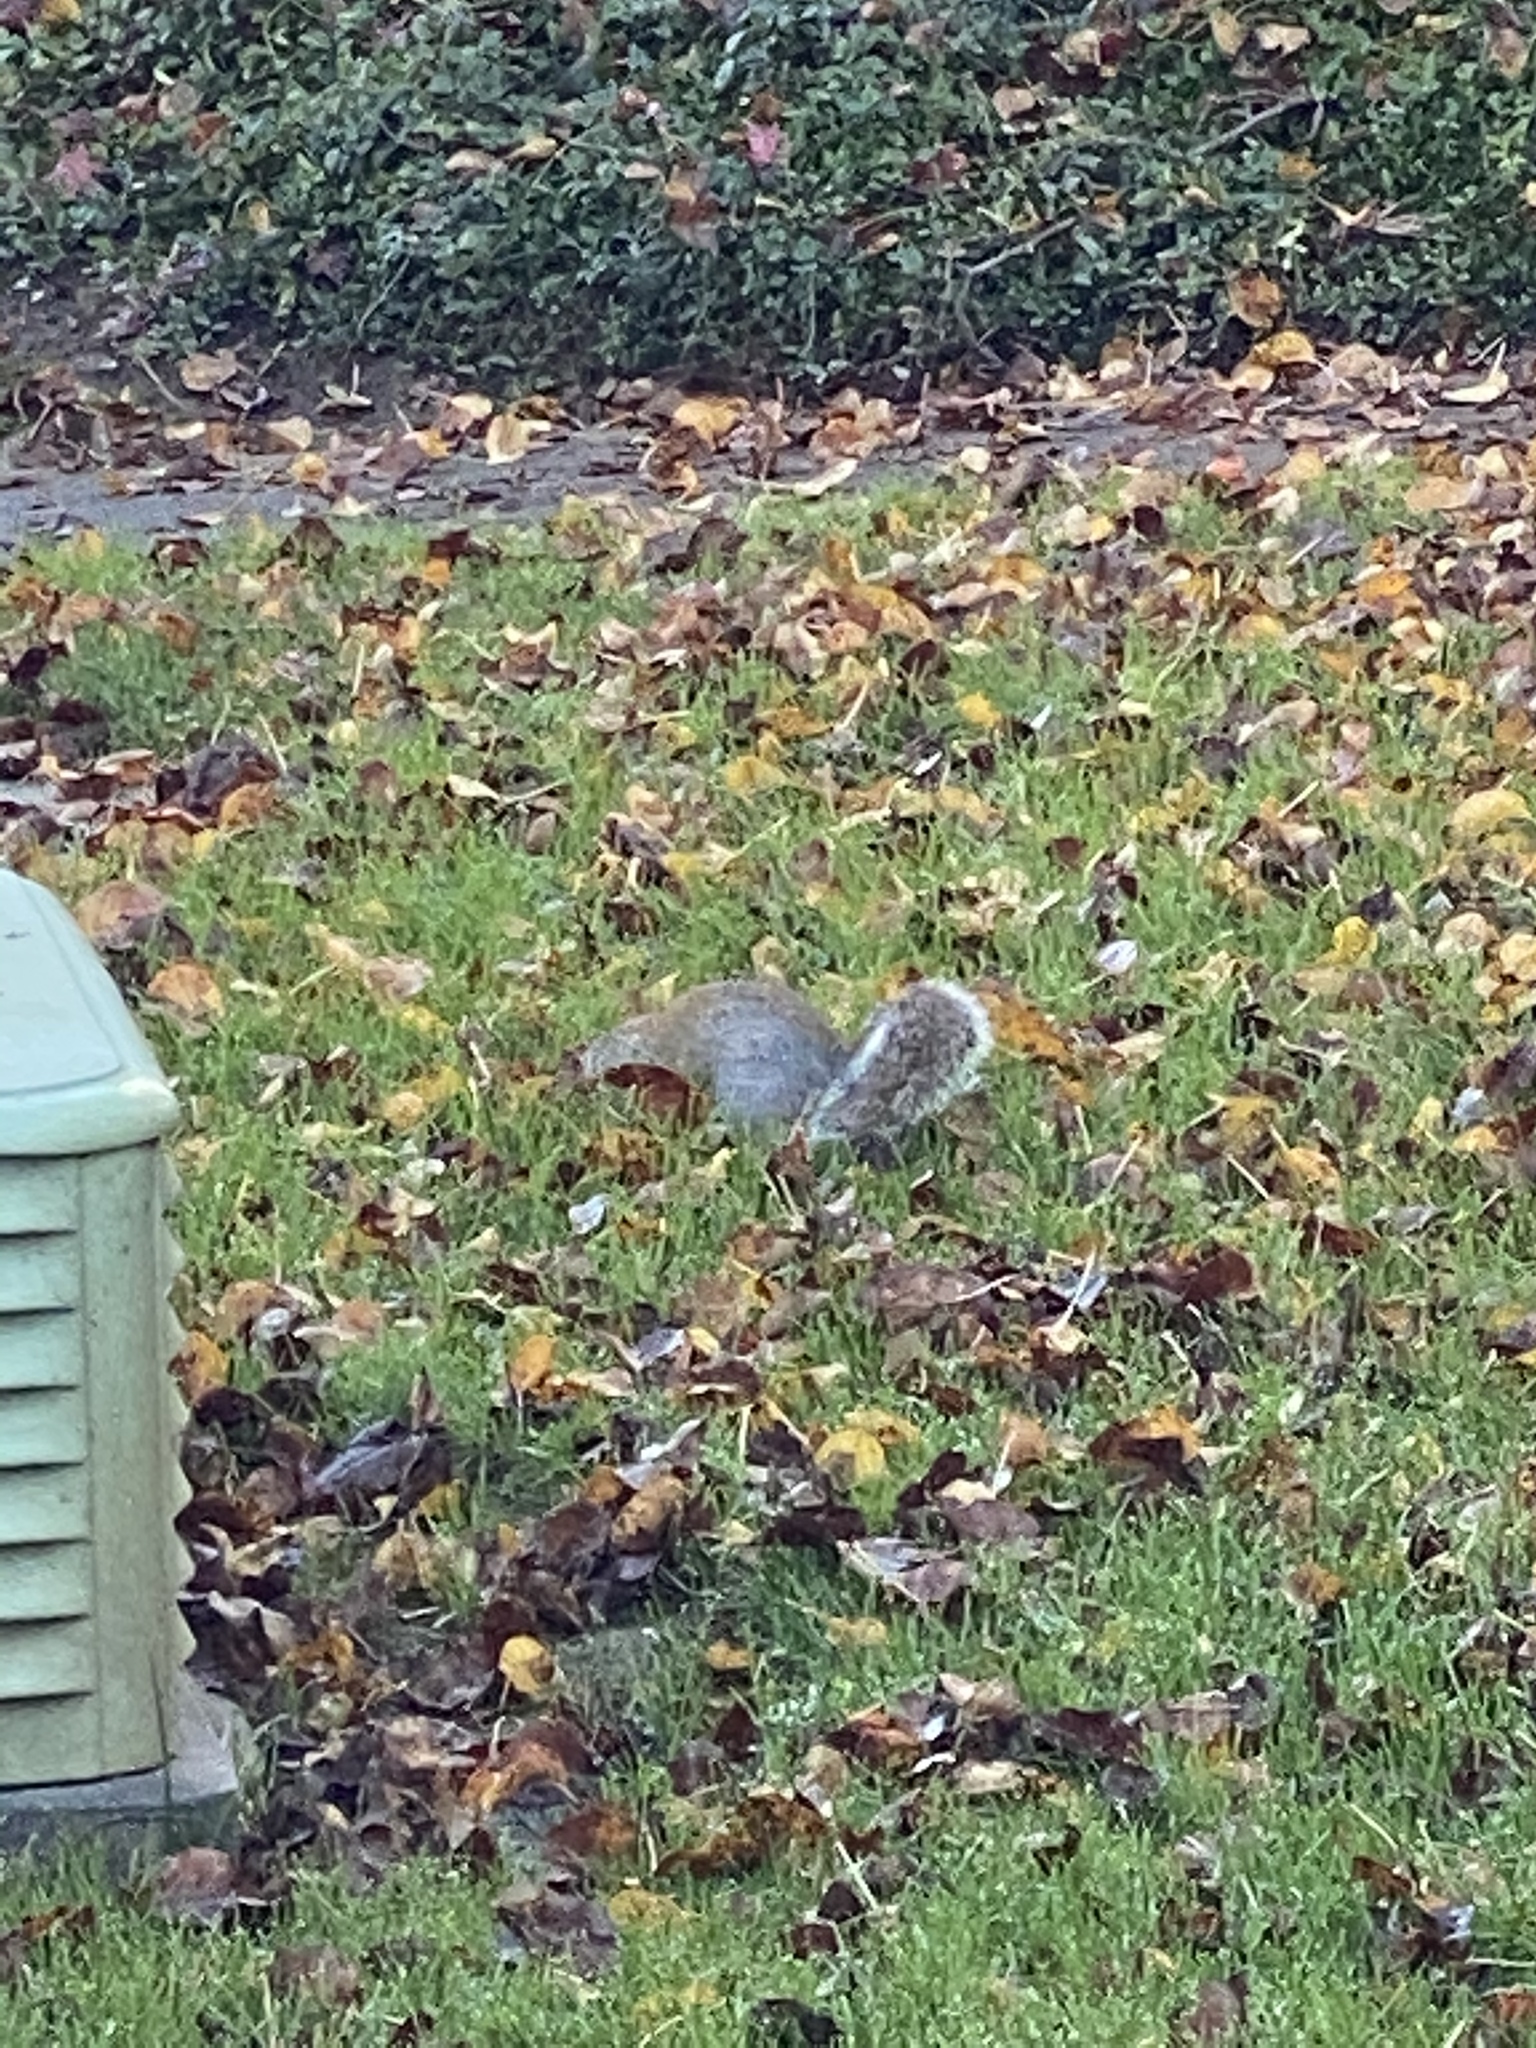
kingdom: Animalia
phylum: Chordata
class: Mammalia
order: Rodentia
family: Sciuridae
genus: Sciurus
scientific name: Sciurus carolinensis
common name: Eastern gray squirrel
